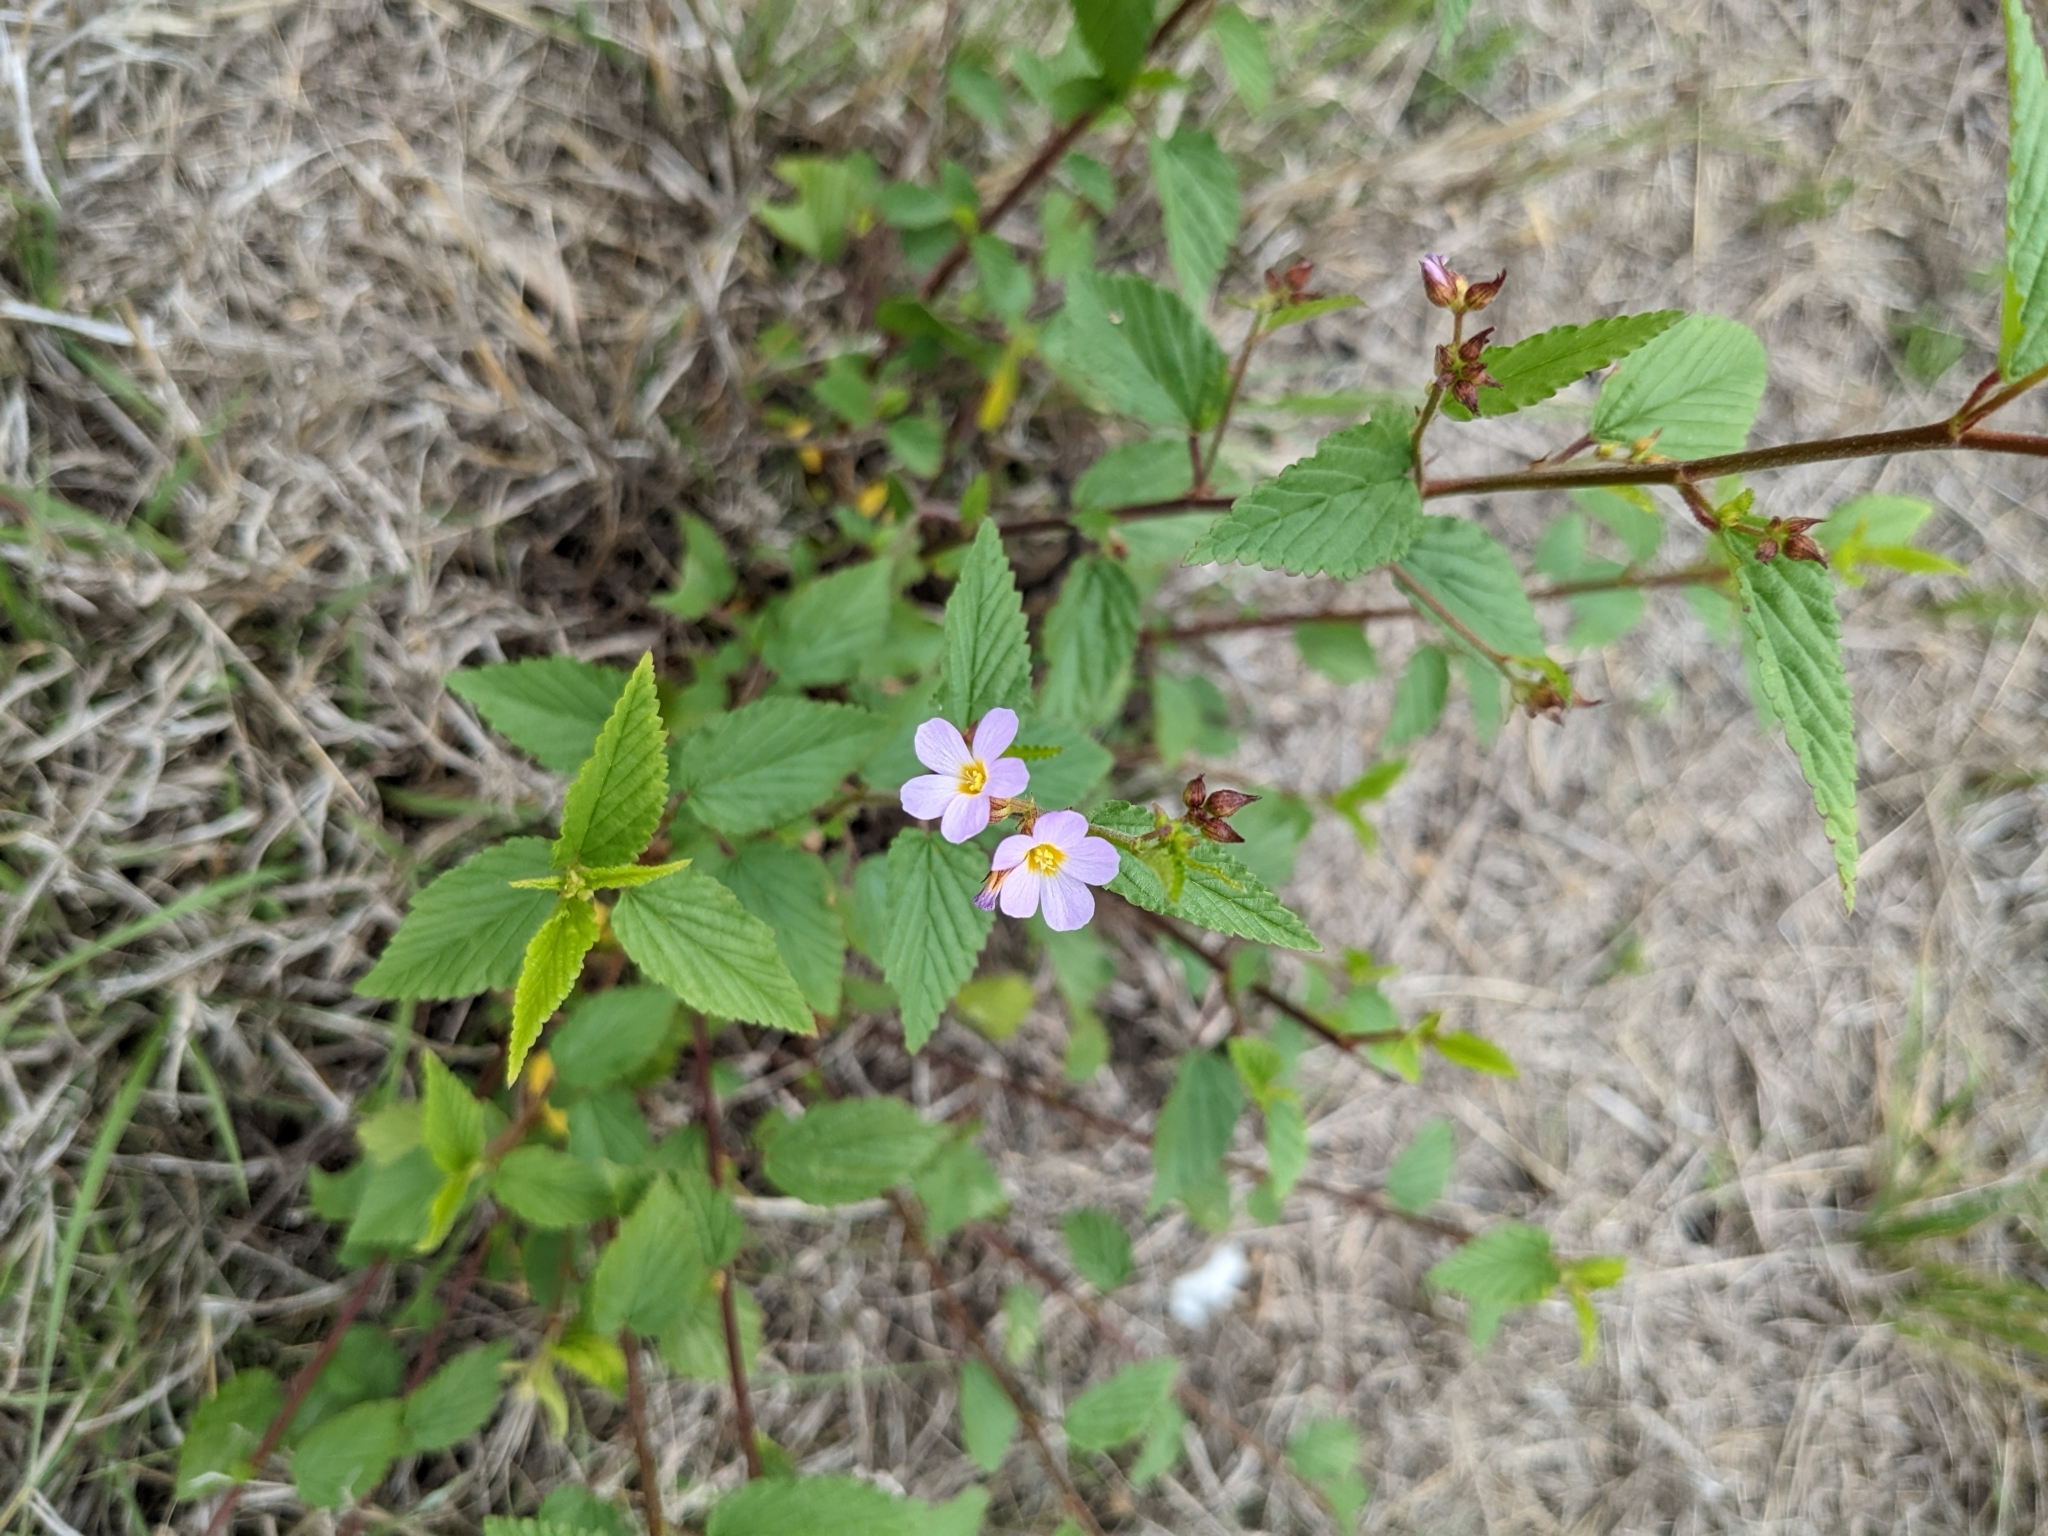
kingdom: Plantae
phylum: Tracheophyta
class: Magnoliopsida
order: Malvales
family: Malvaceae
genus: Melochia
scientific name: Melochia pyramidata
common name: Pyramidflower
